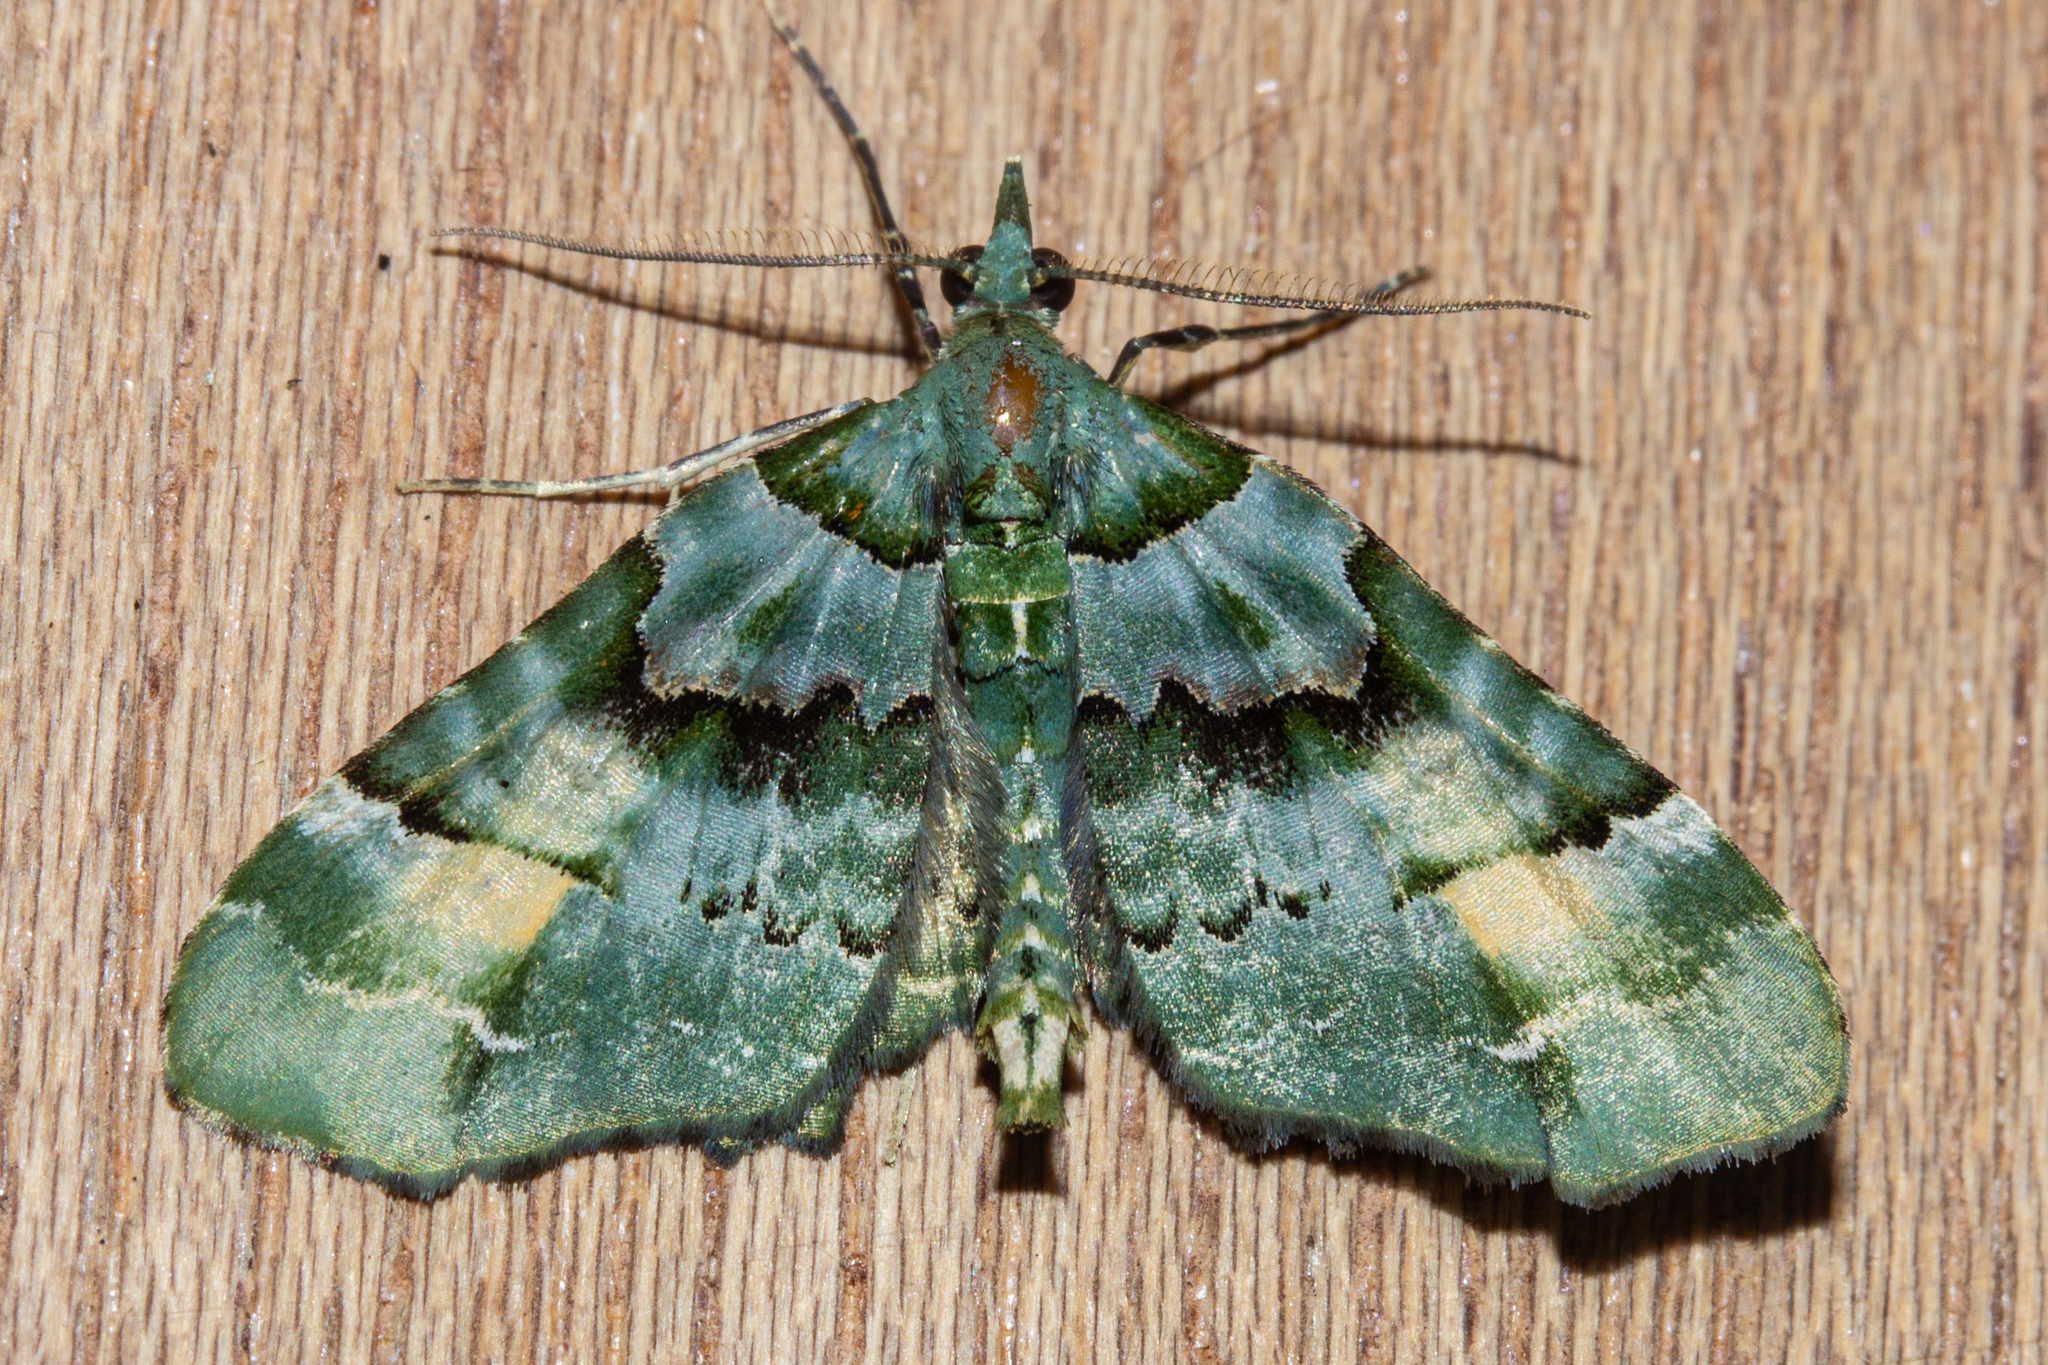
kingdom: Animalia
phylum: Arthropoda
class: Insecta
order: Lepidoptera
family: Geometridae
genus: Elvia
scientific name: Elvia glaucata
